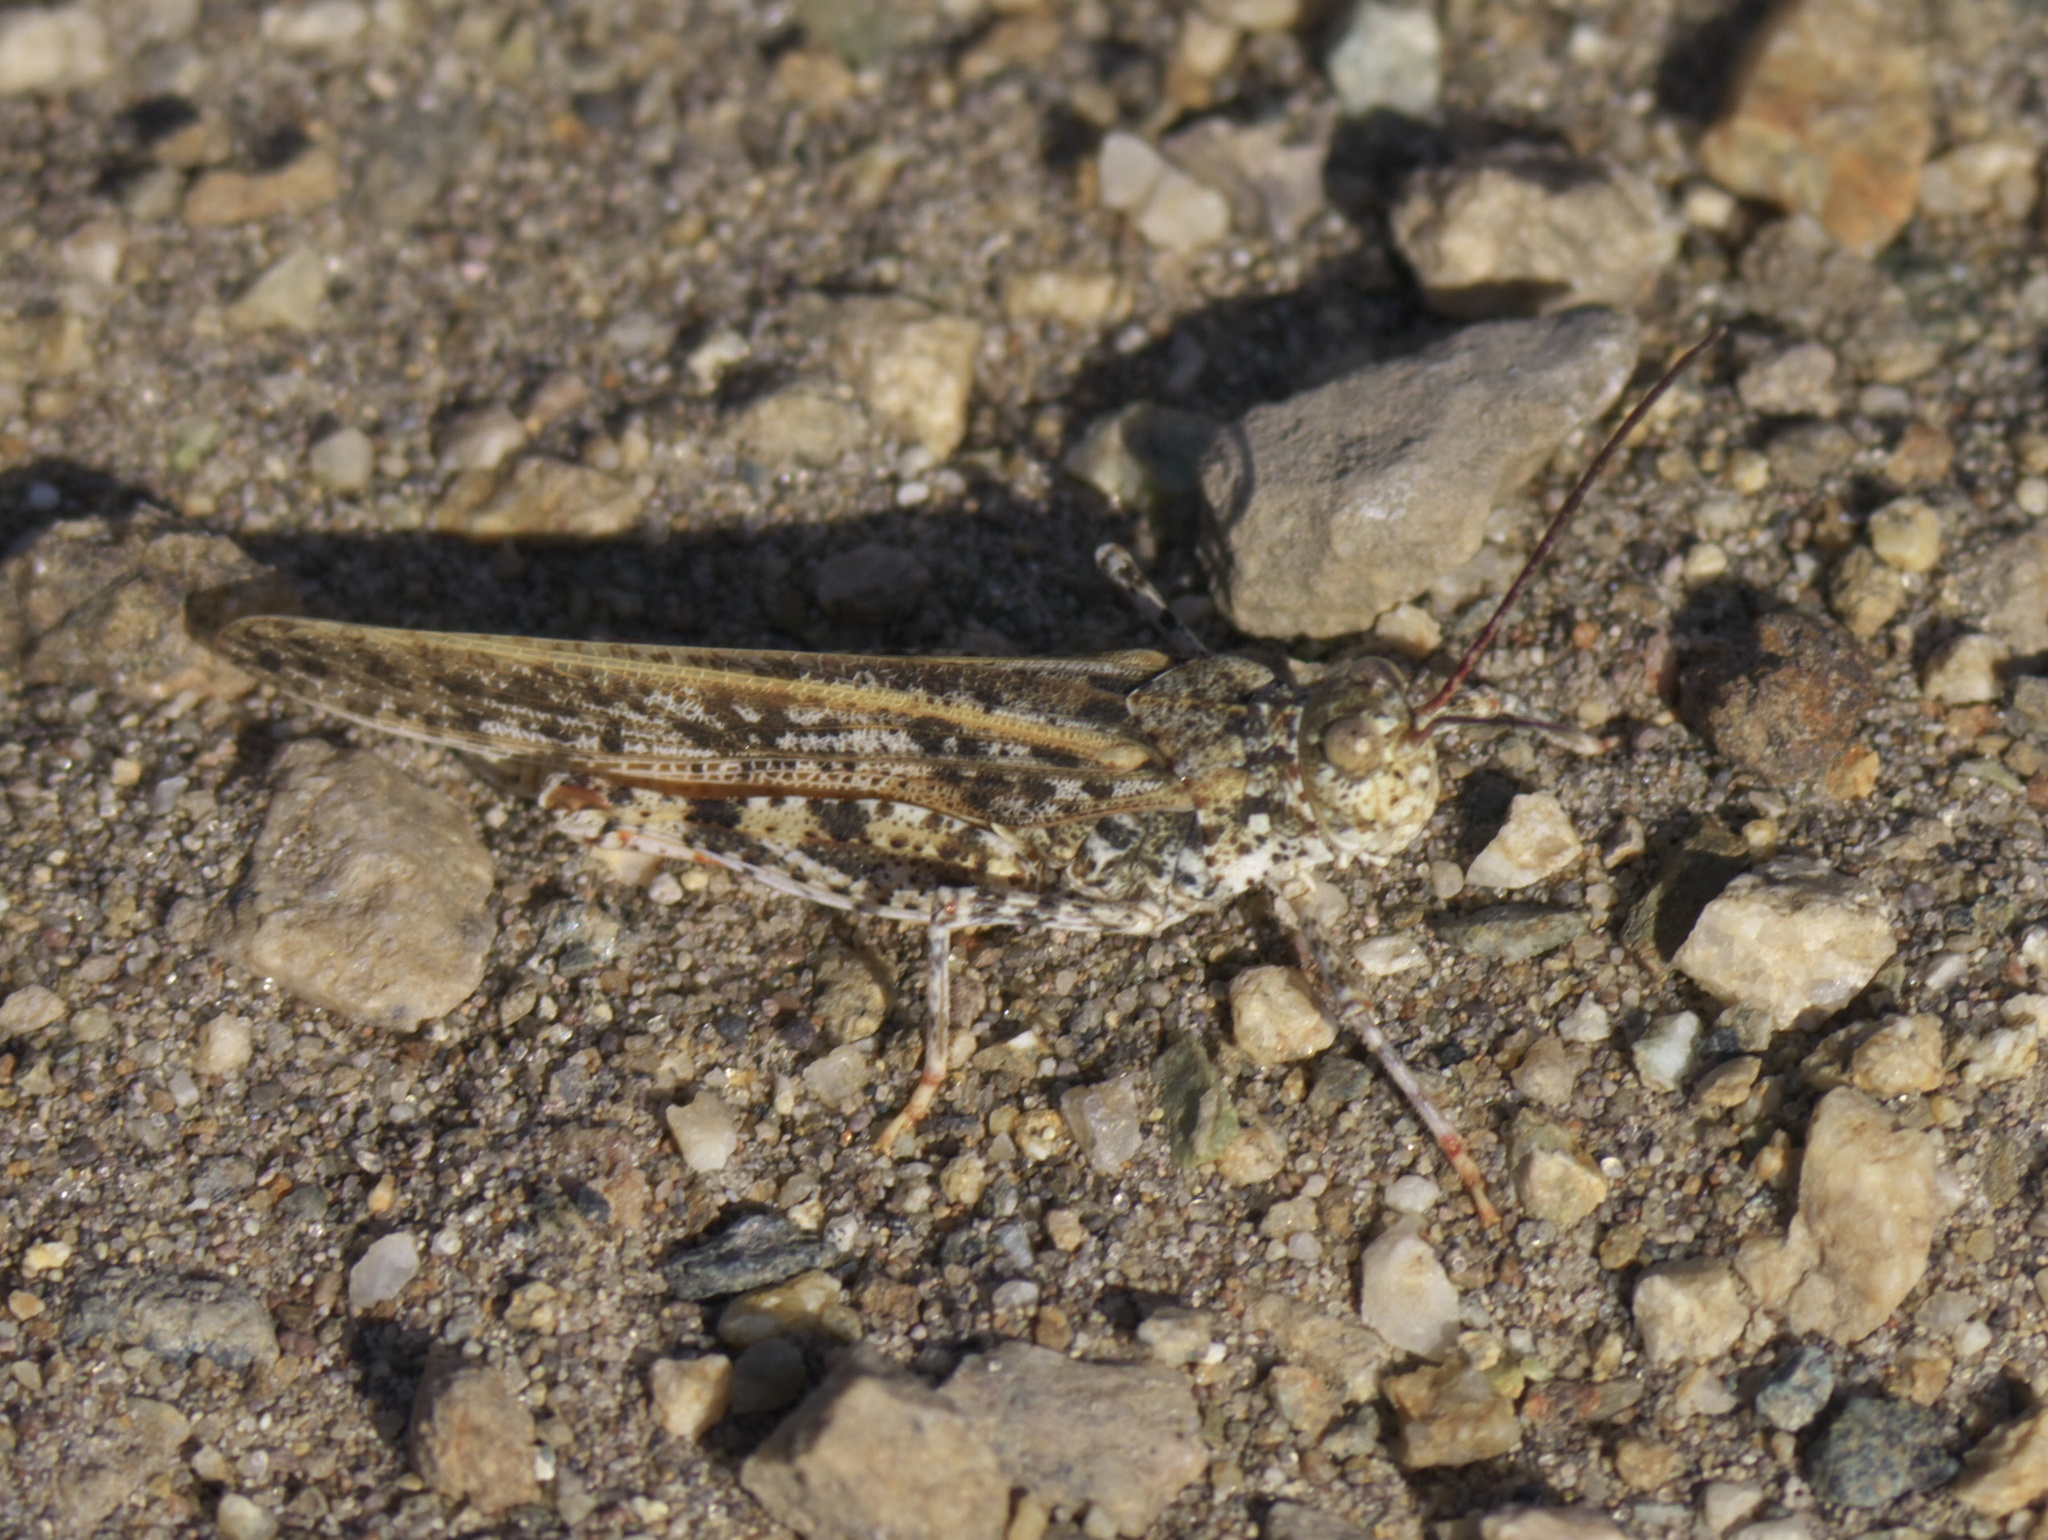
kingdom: Animalia
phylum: Arthropoda
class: Insecta
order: Orthoptera
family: Acrididae
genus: Trimerotropis
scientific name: Trimerotropis barnumi
